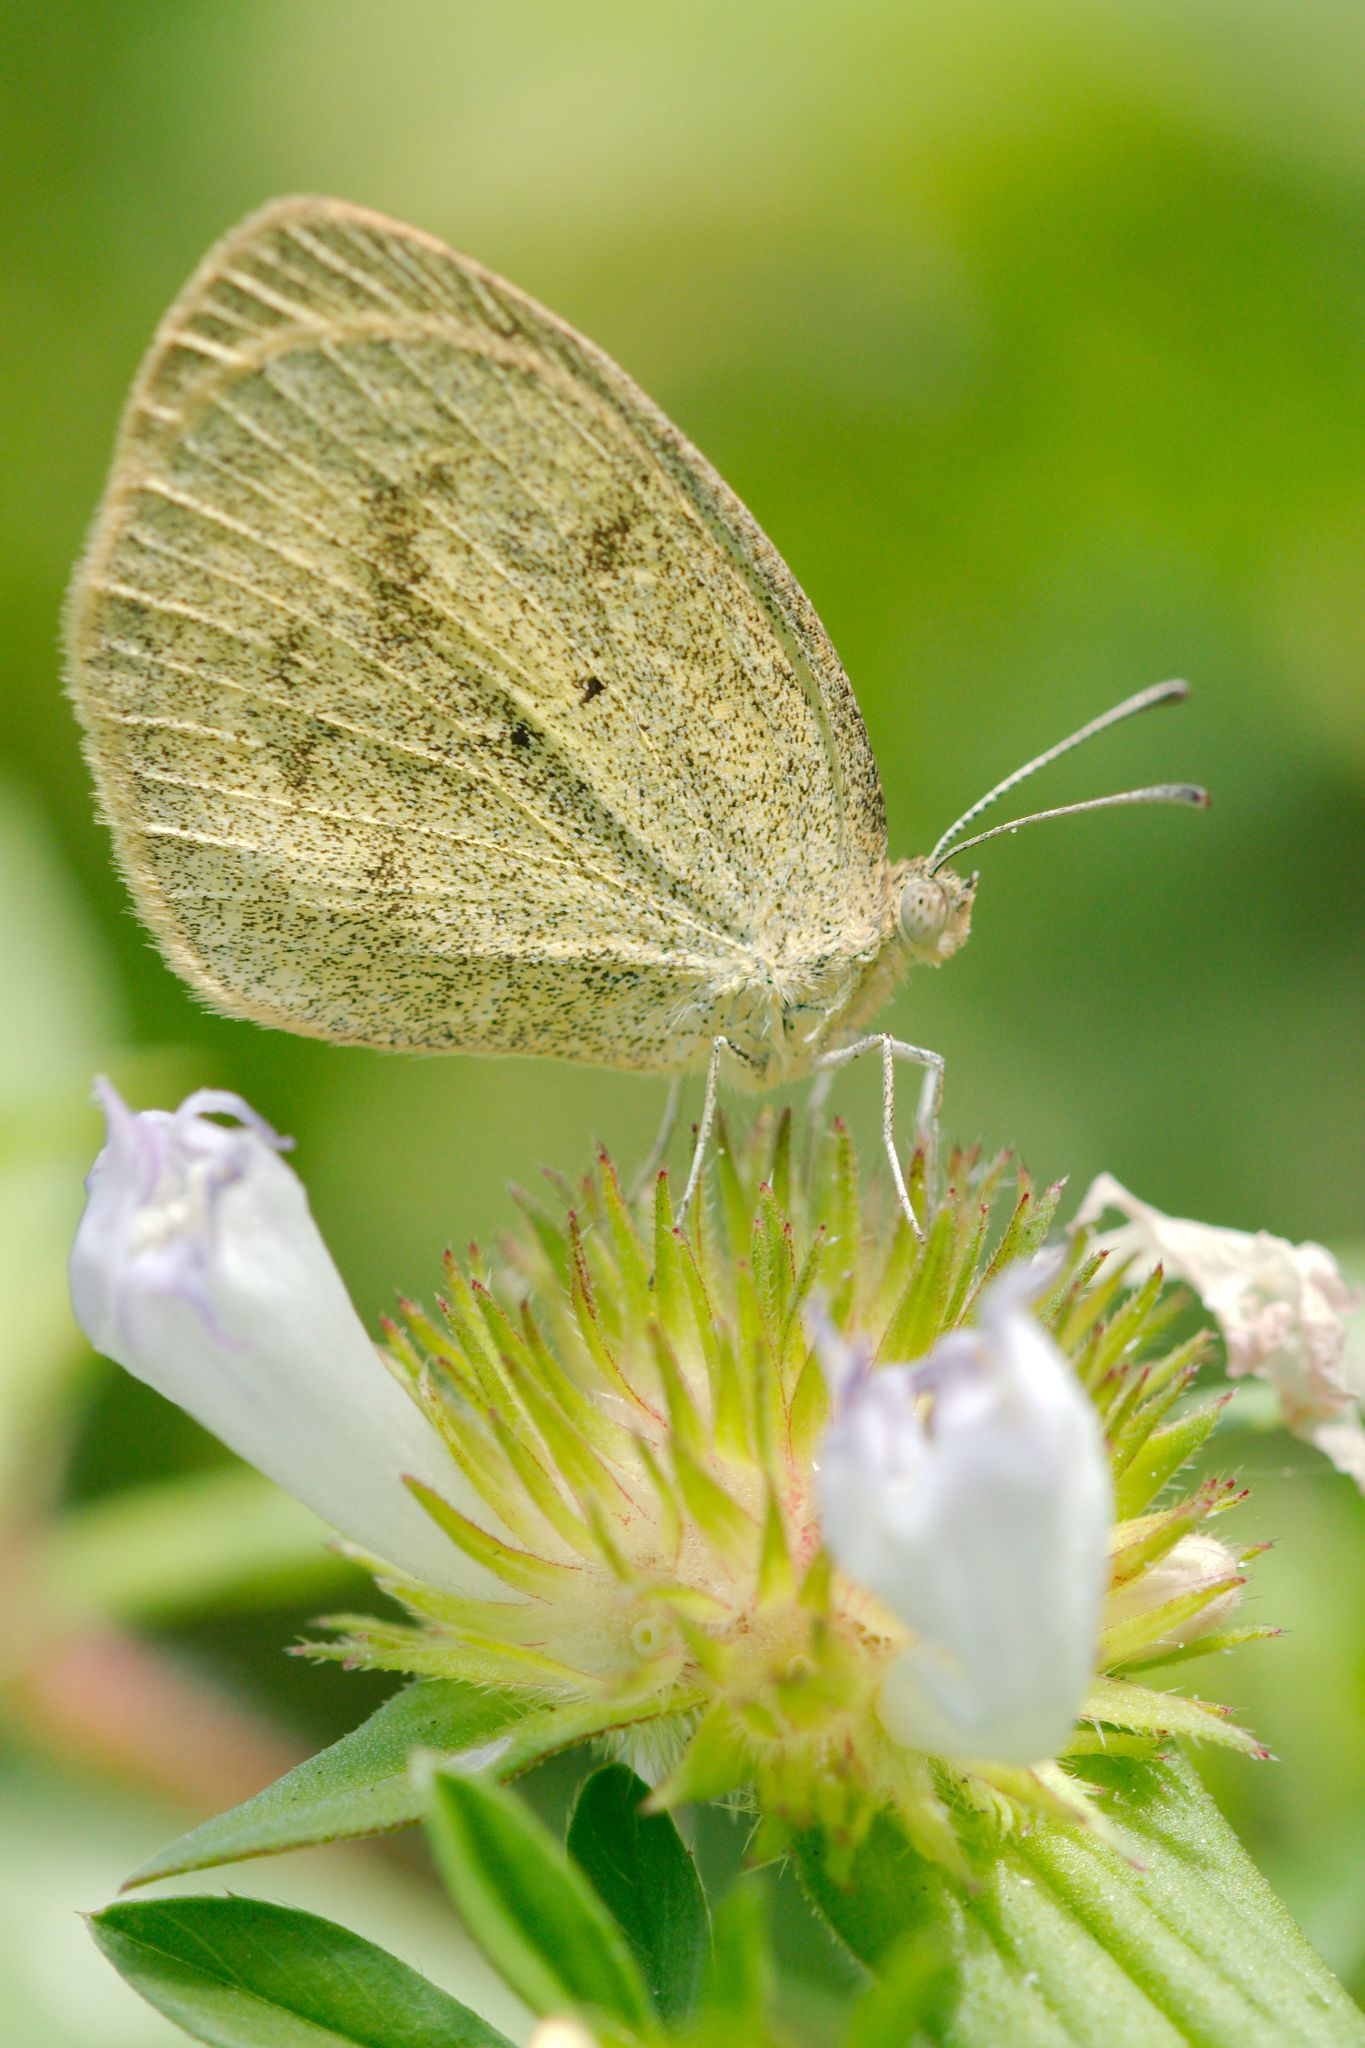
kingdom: Animalia
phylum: Arthropoda
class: Insecta
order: Lepidoptera
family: Pieridae
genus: Eurema
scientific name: Eurema daira
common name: Barred sulphur
